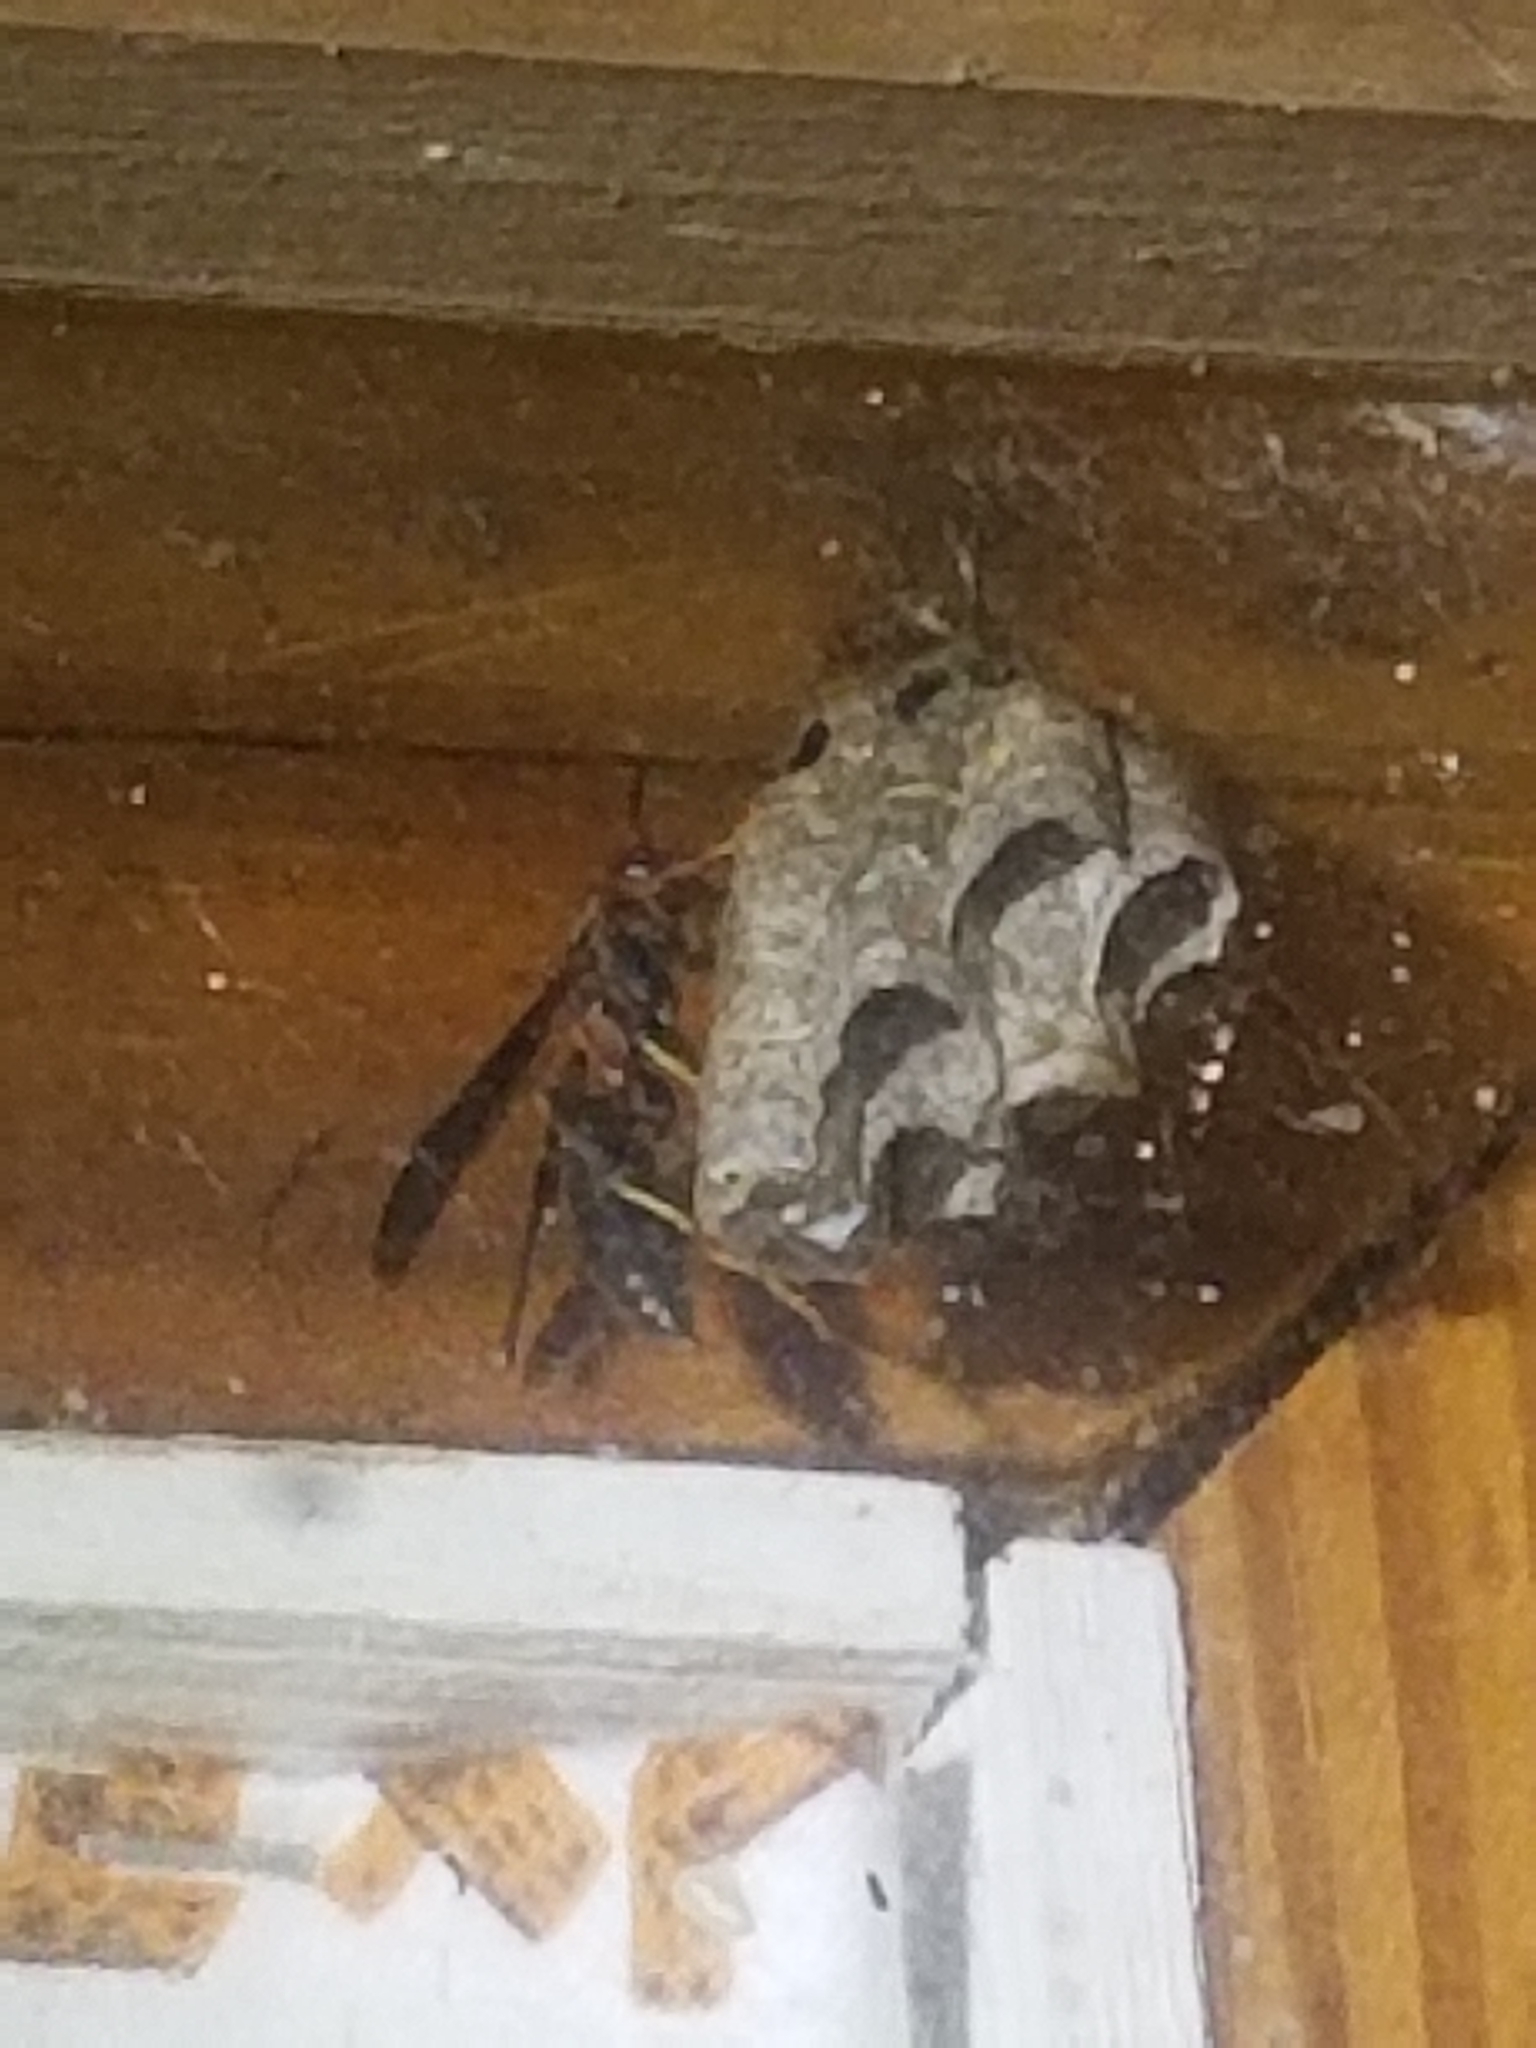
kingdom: Animalia
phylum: Arthropoda
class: Insecta
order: Hymenoptera
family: Vespidae
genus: Fuscopolistes
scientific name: Fuscopolistes
